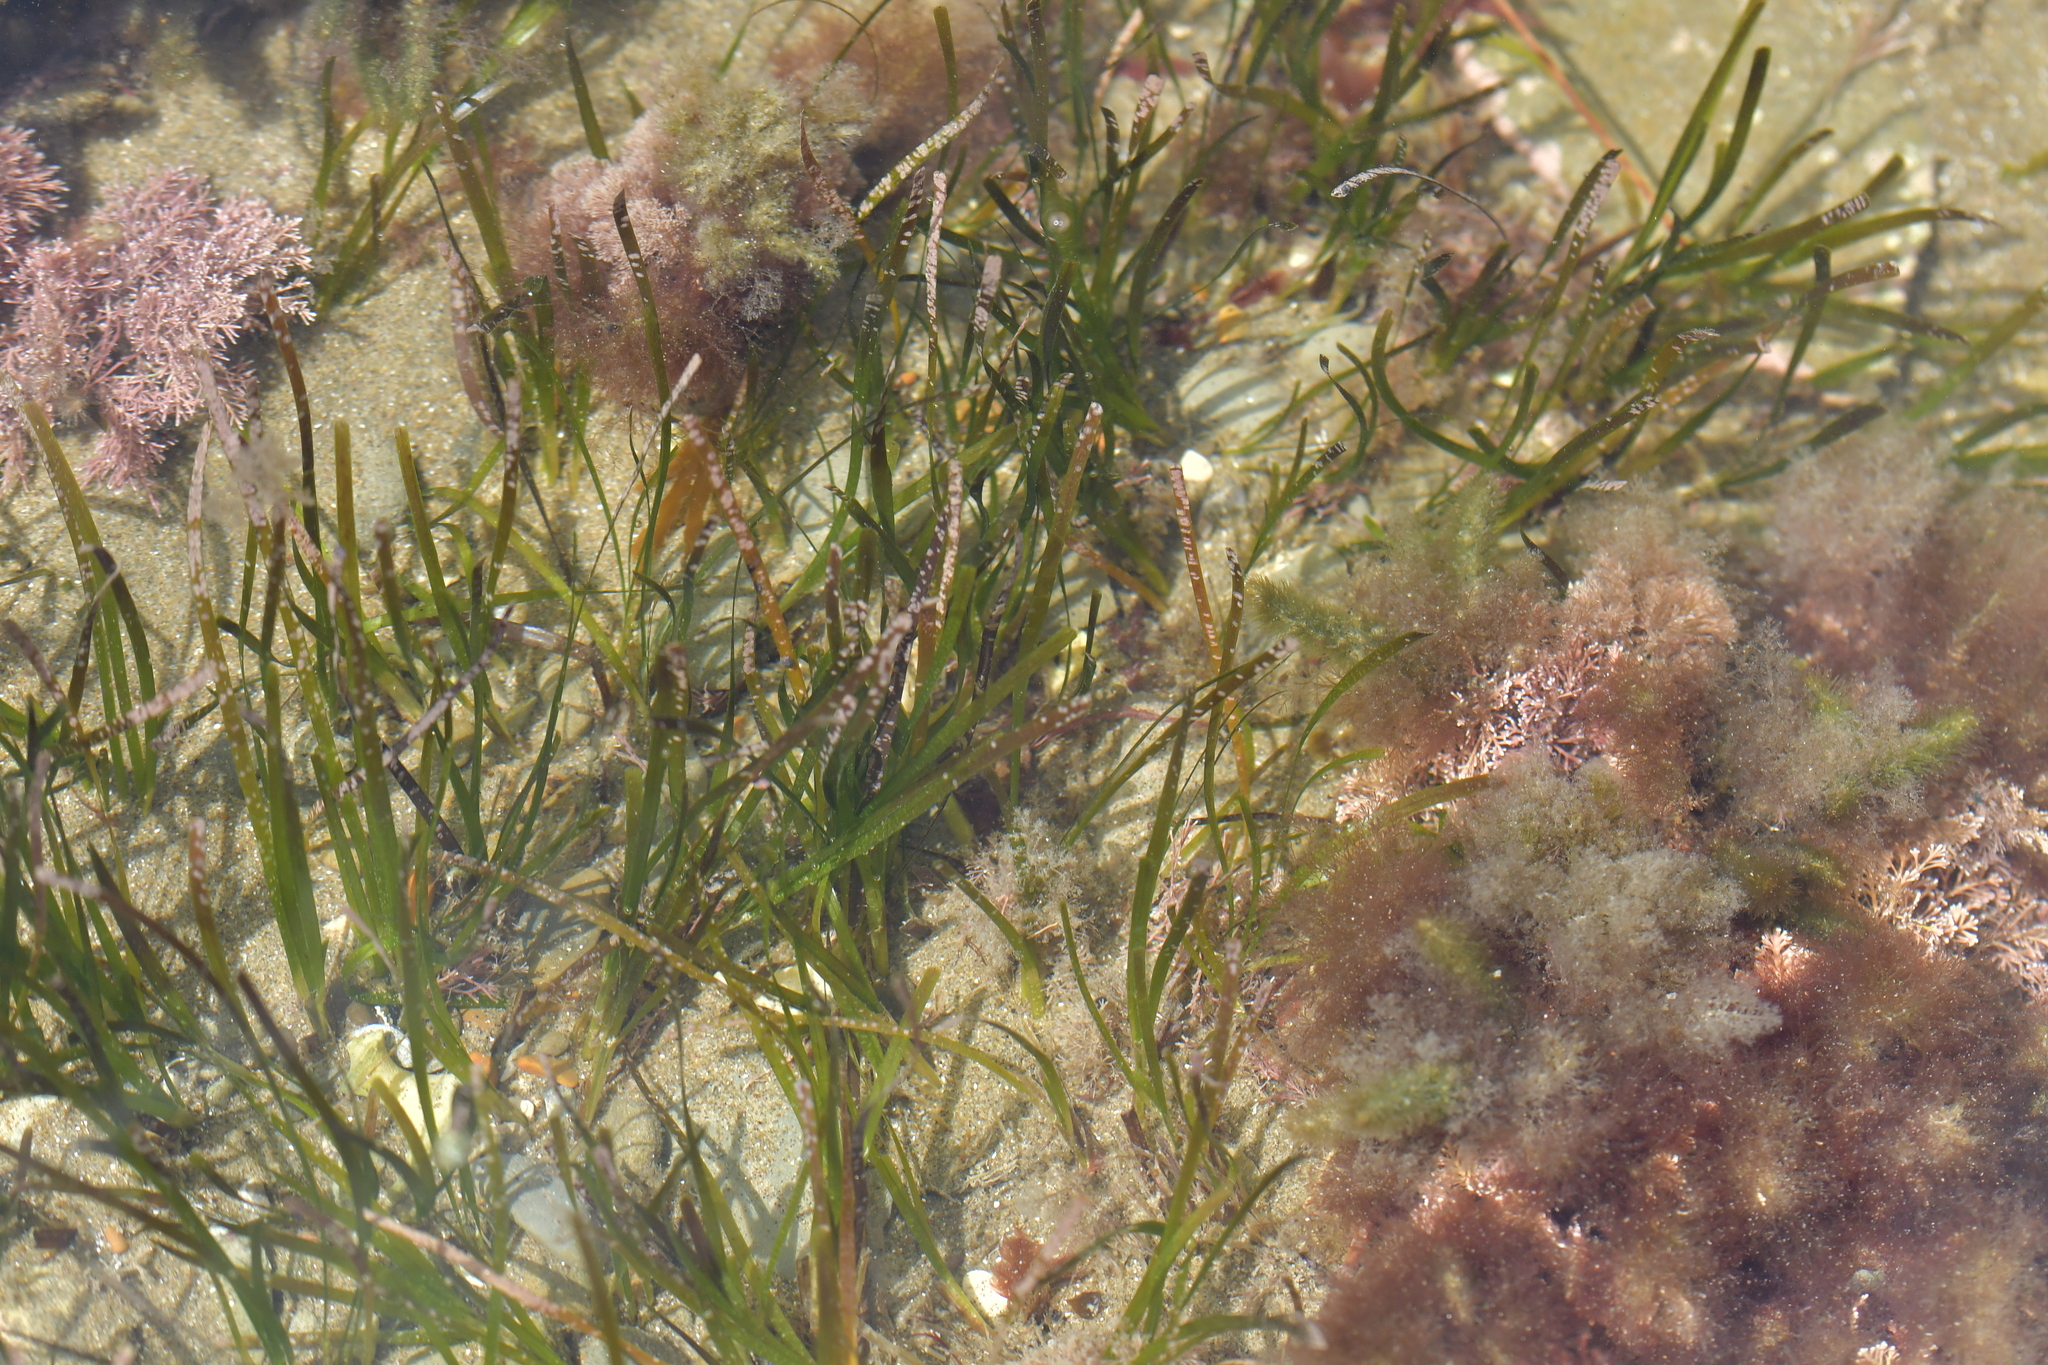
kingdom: Plantae
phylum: Tracheophyta
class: Liliopsida
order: Alismatales
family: Zosteraceae
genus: Zostera
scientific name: Zostera muelleri
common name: Species code: zc
